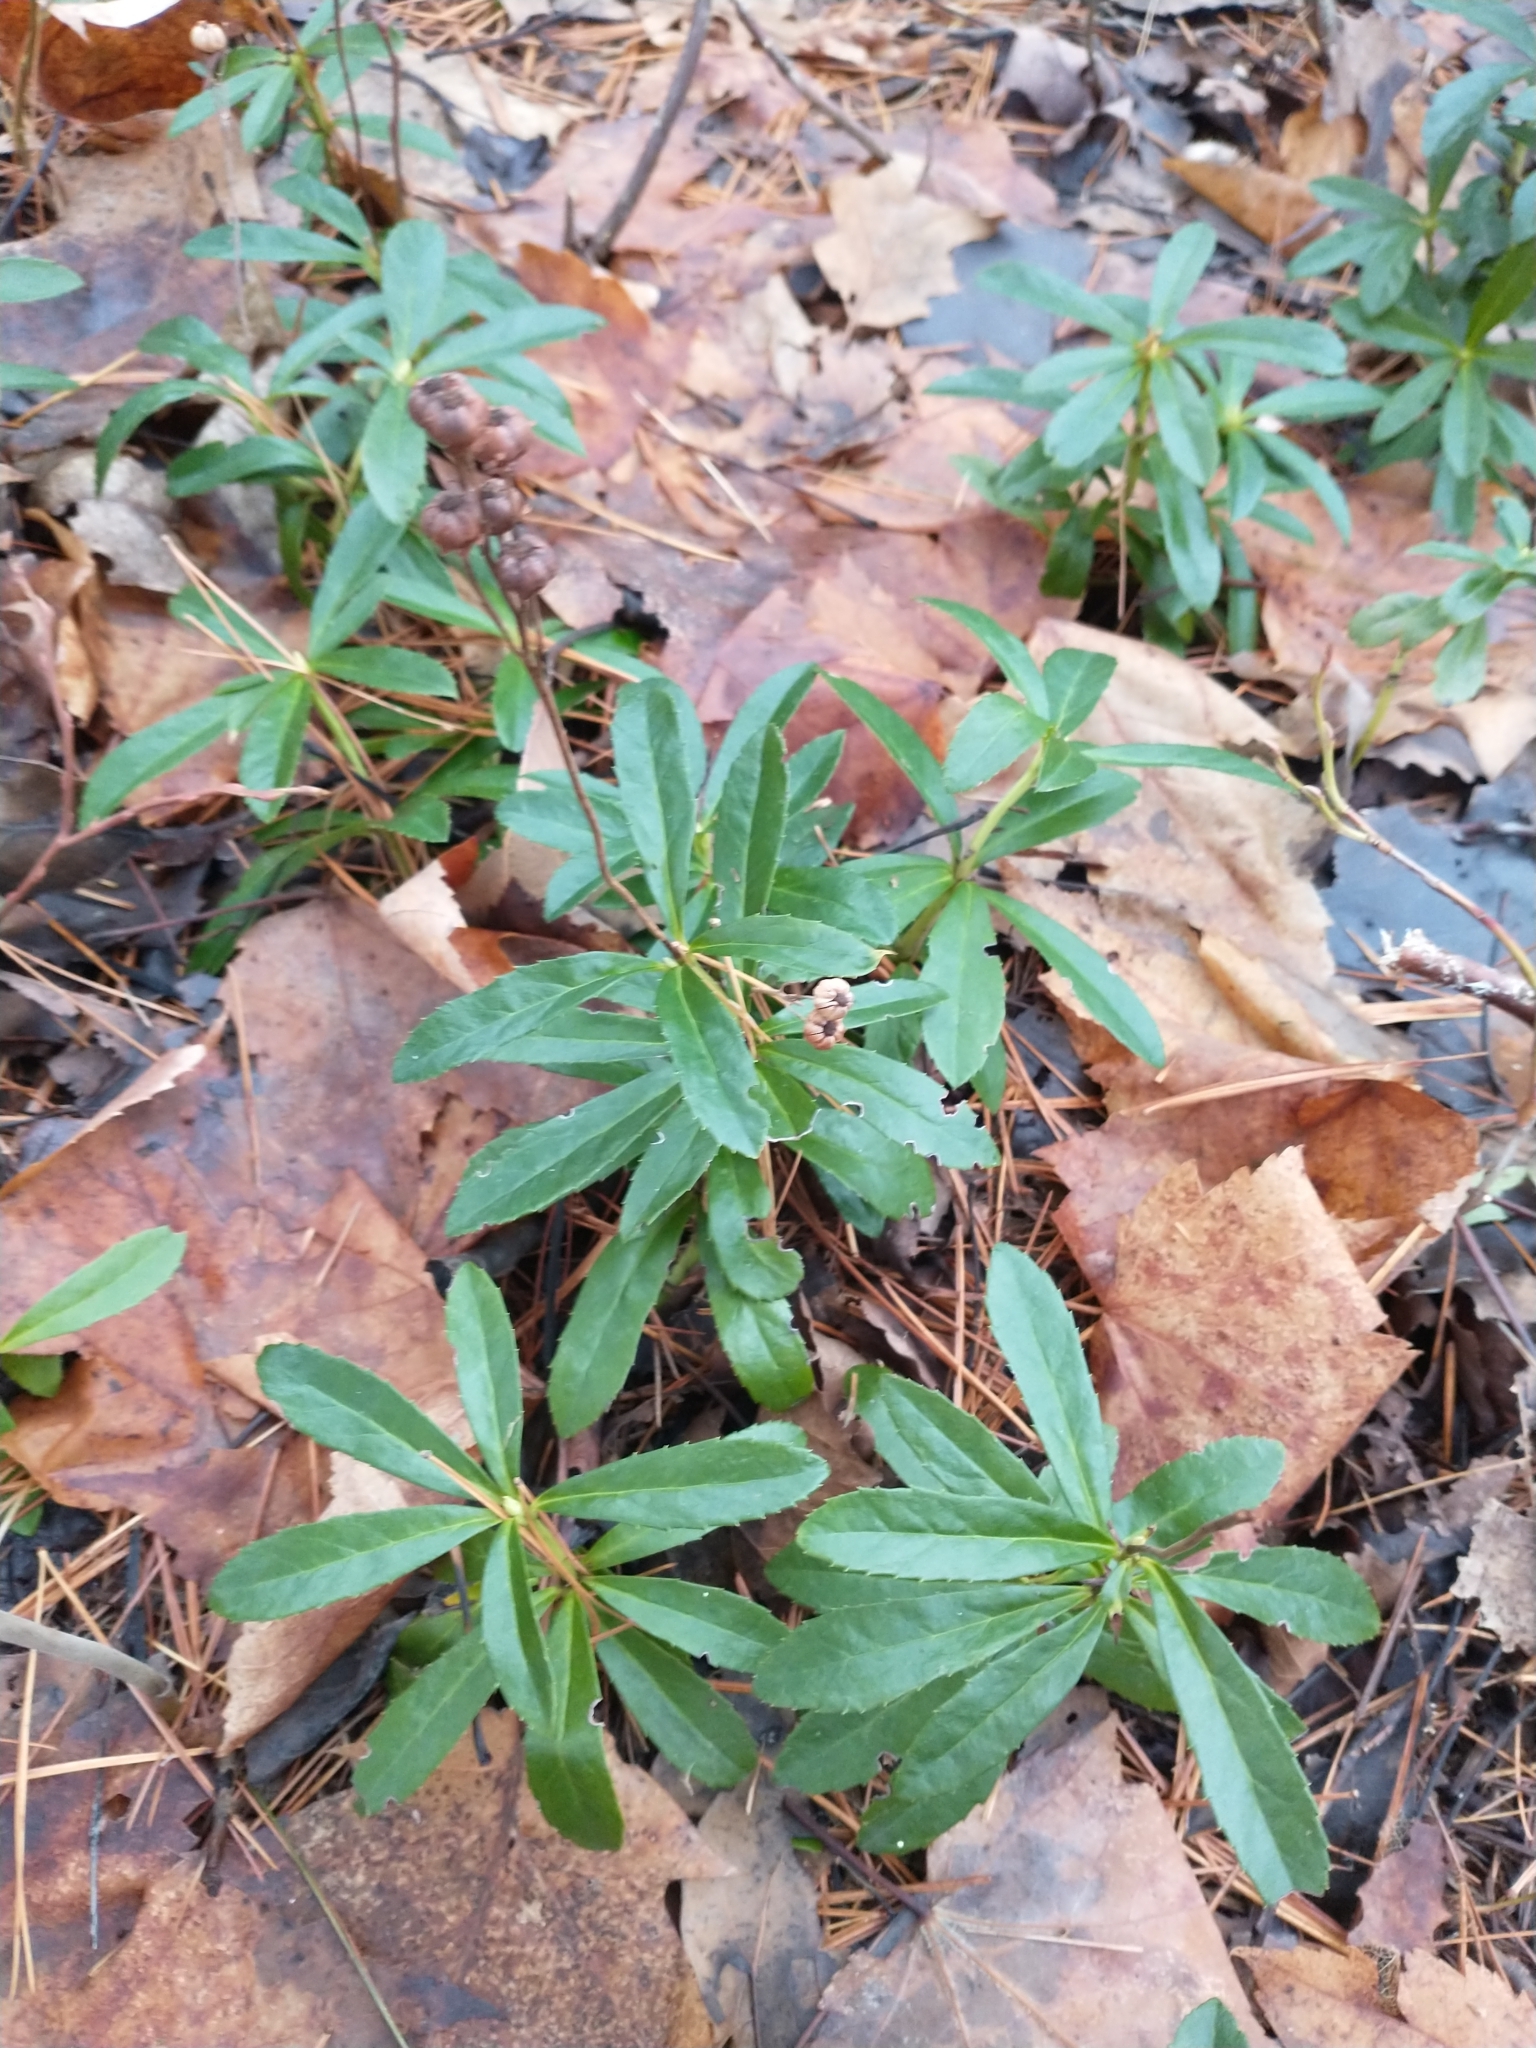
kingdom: Plantae
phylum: Tracheophyta
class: Magnoliopsida
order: Ericales
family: Ericaceae
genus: Chimaphila
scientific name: Chimaphila umbellata
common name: Pipsissewa
